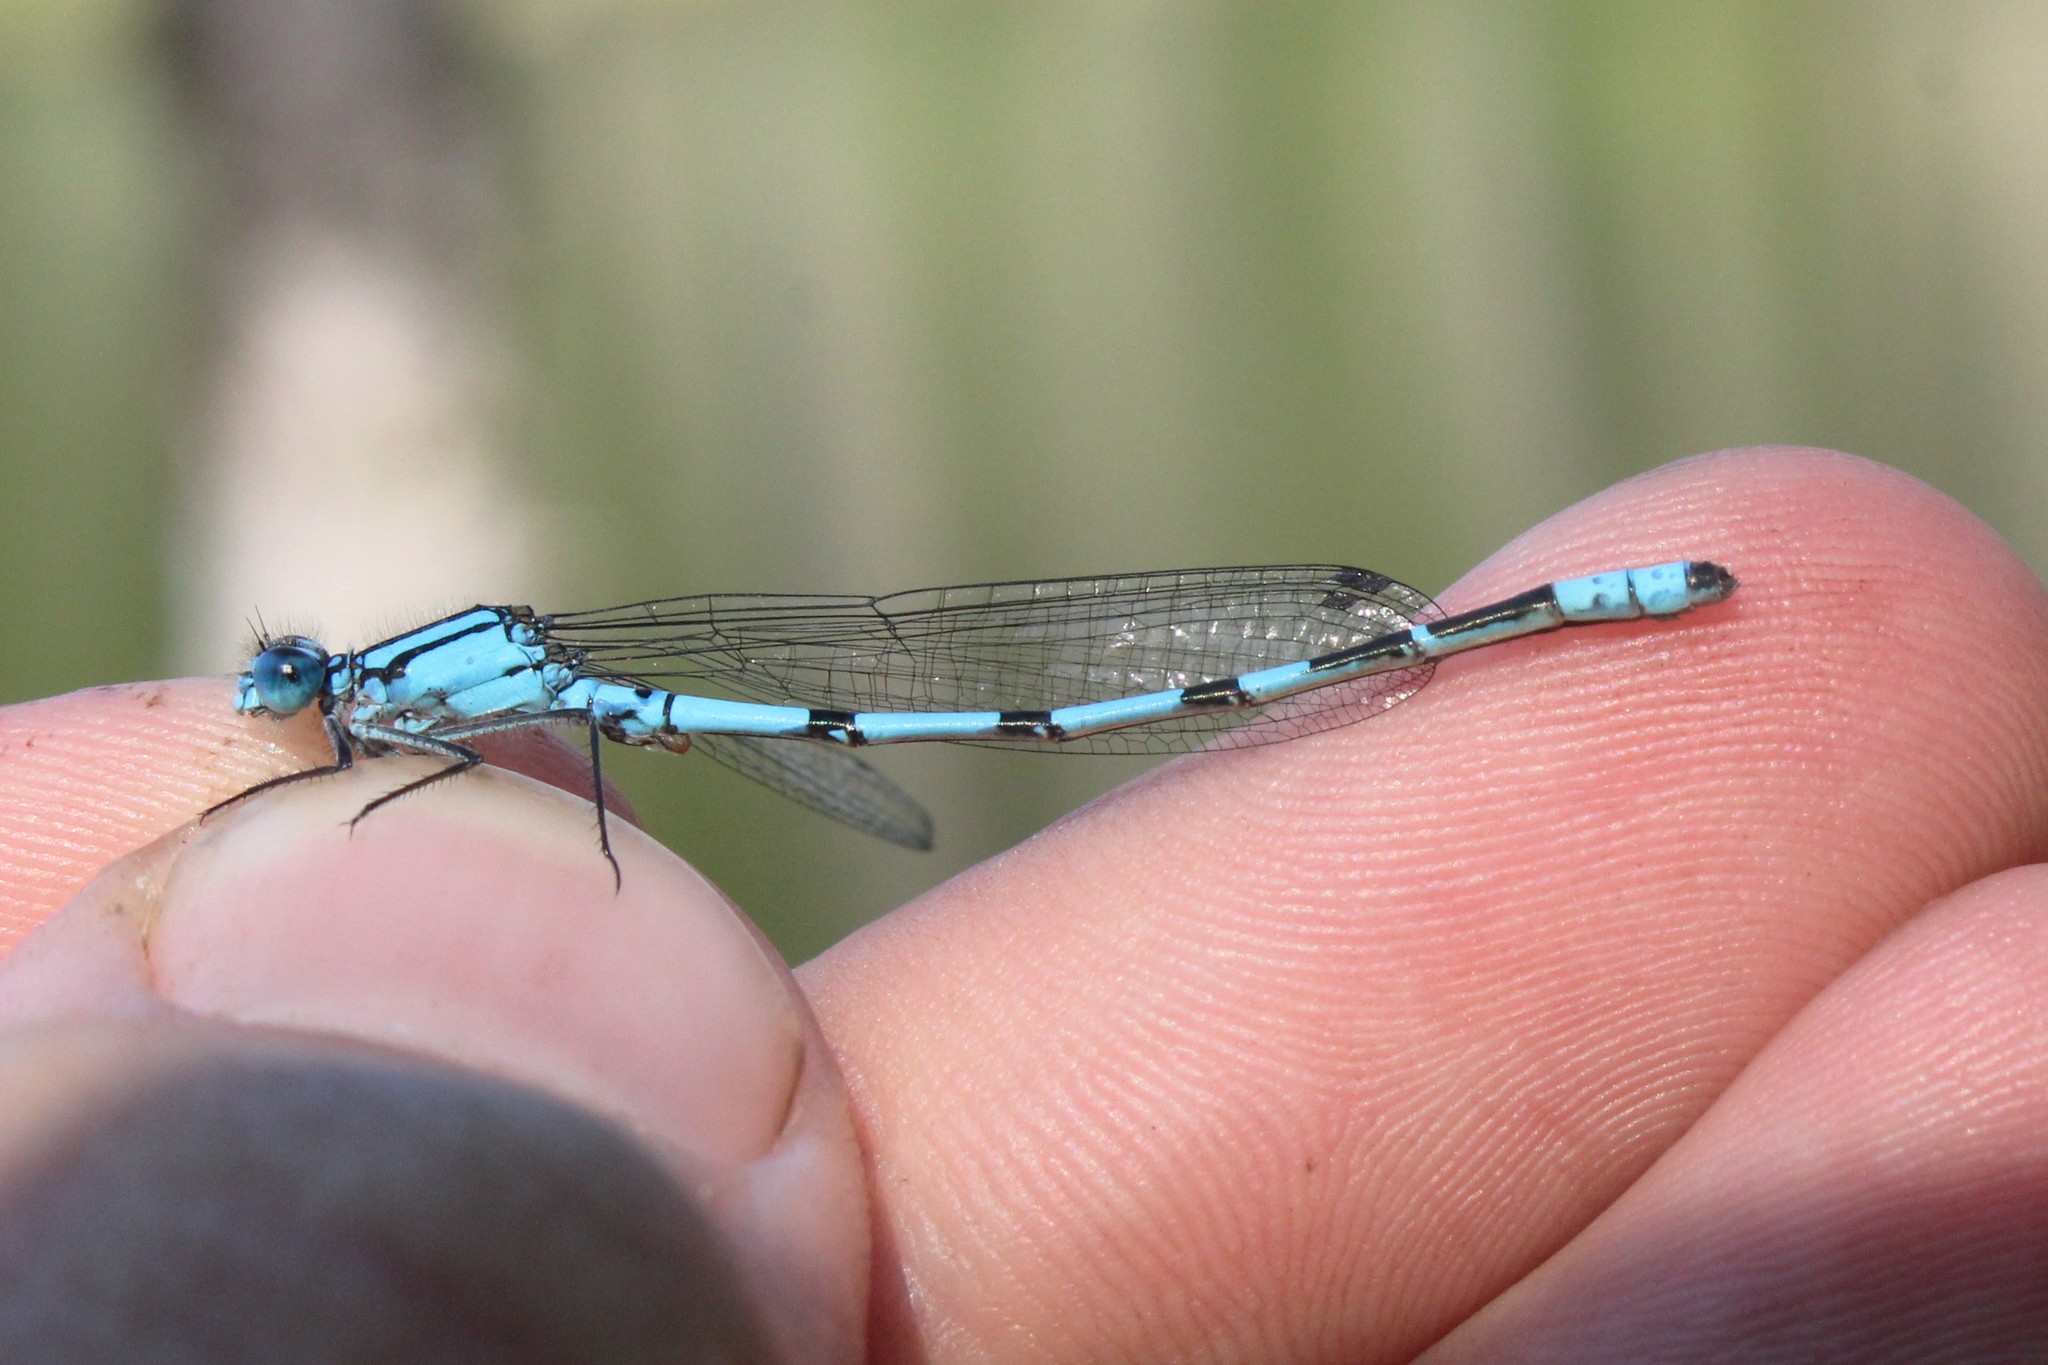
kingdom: Animalia
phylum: Arthropoda
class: Insecta
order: Odonata
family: Coenagrionidae
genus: Enallagma
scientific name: Enallagma annexum
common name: Northern bluet
